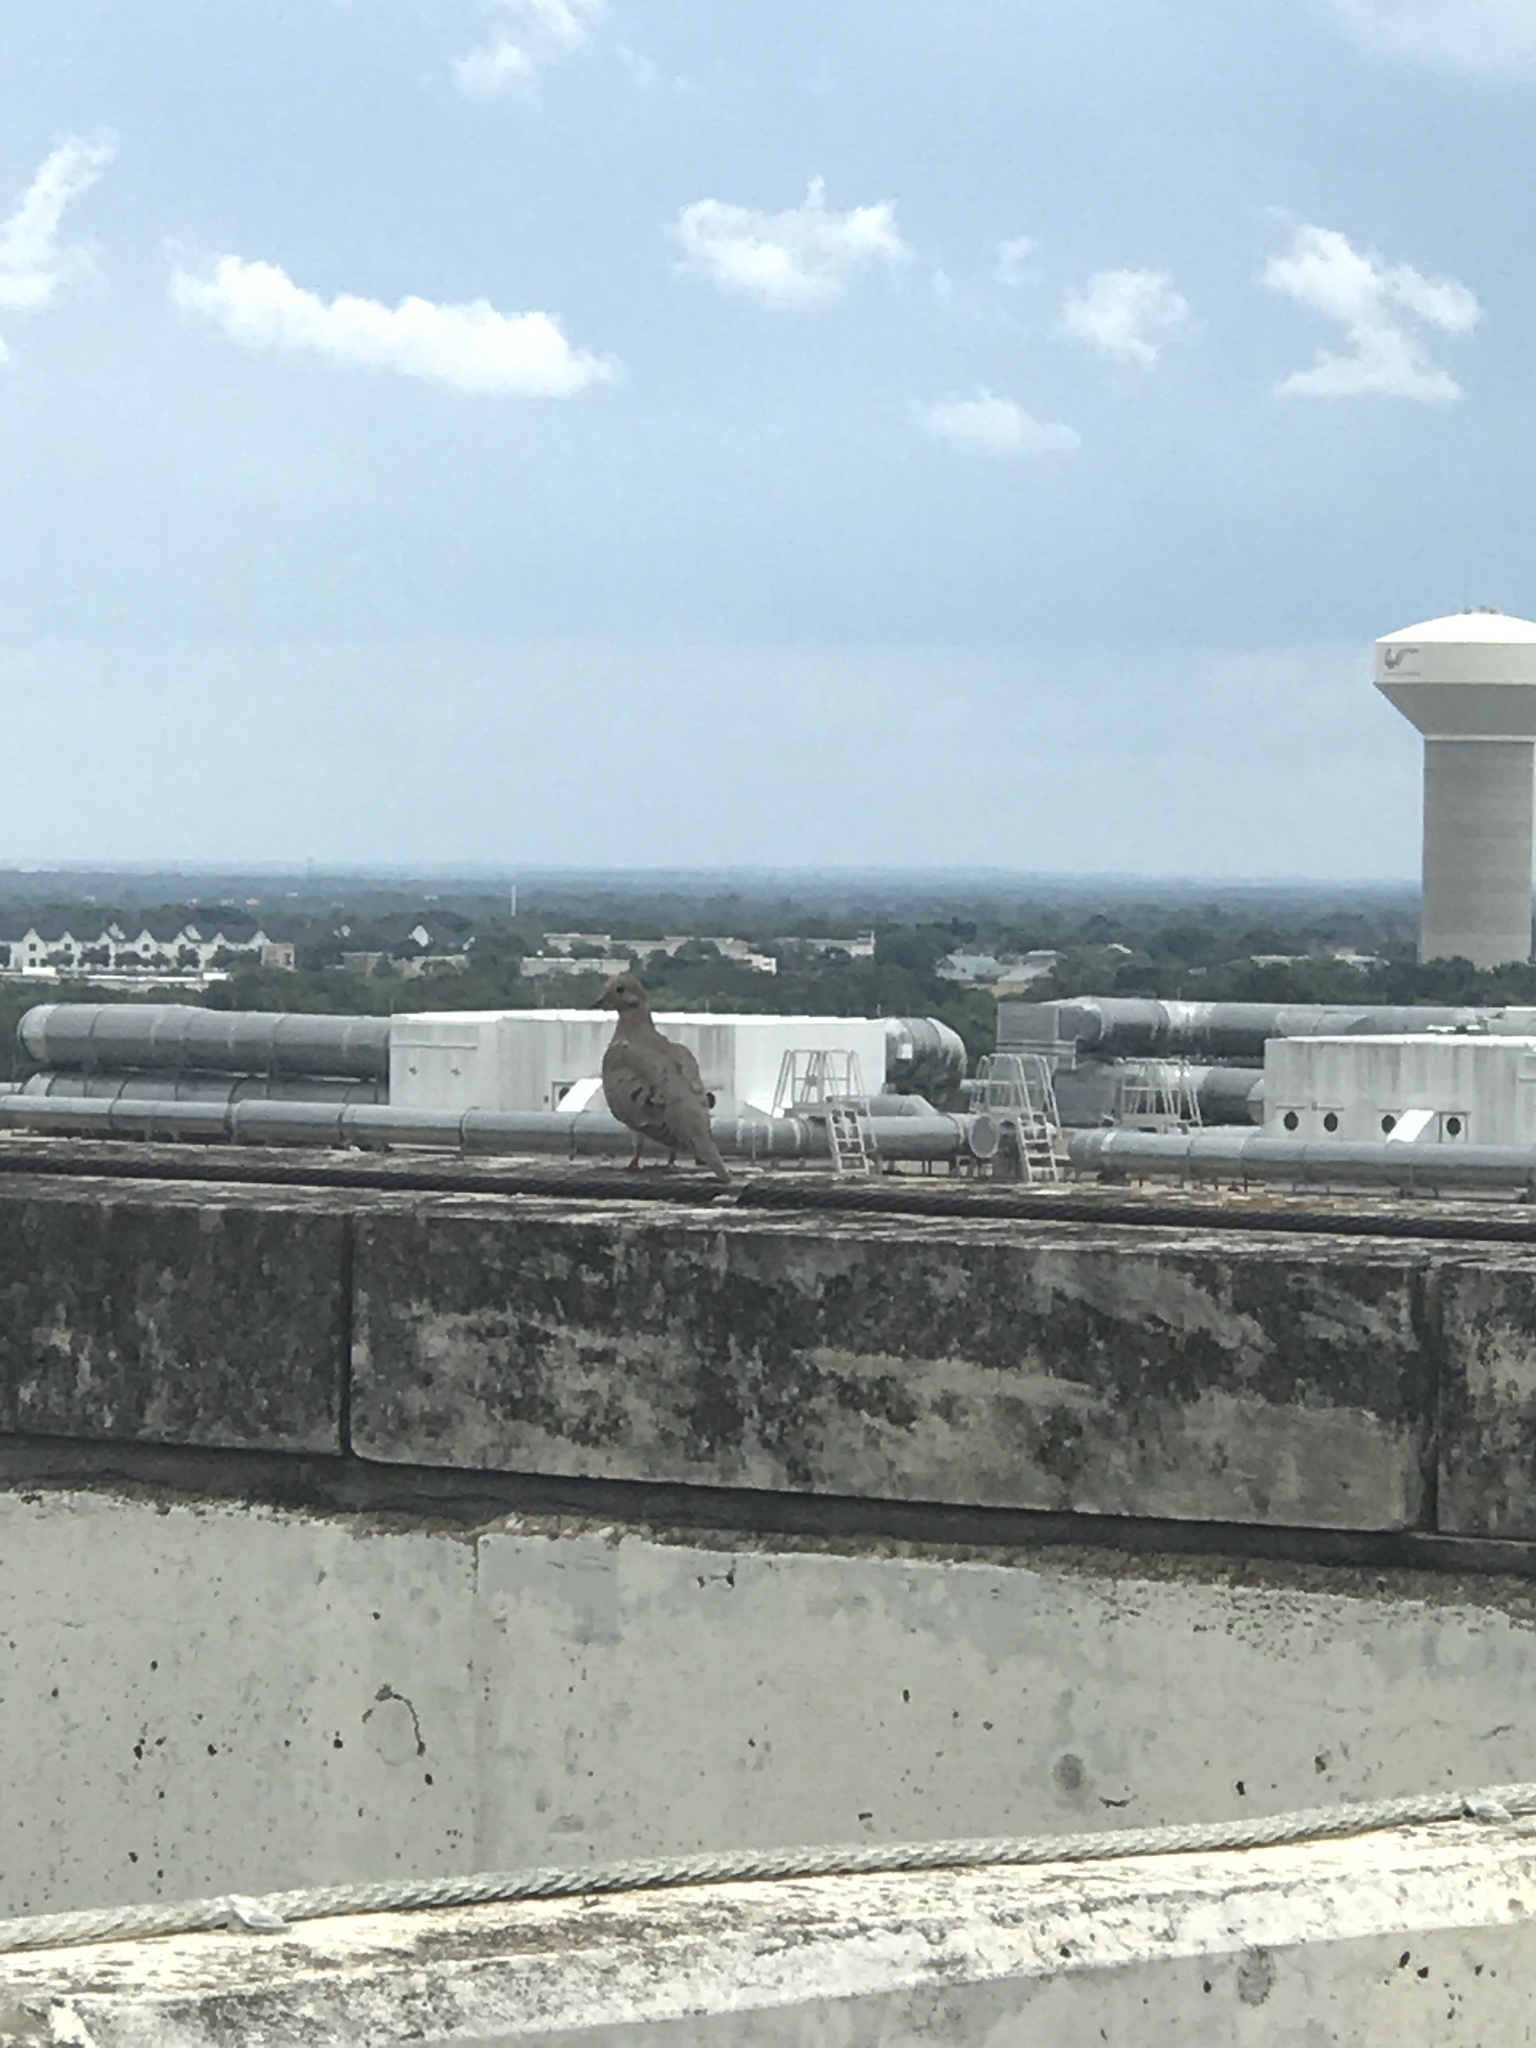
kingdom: Animalia
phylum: Chordata
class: Aves
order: Columbiformes
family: Columbidae
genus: Zenaida
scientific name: Zenaida macroura
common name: Mourning dove
